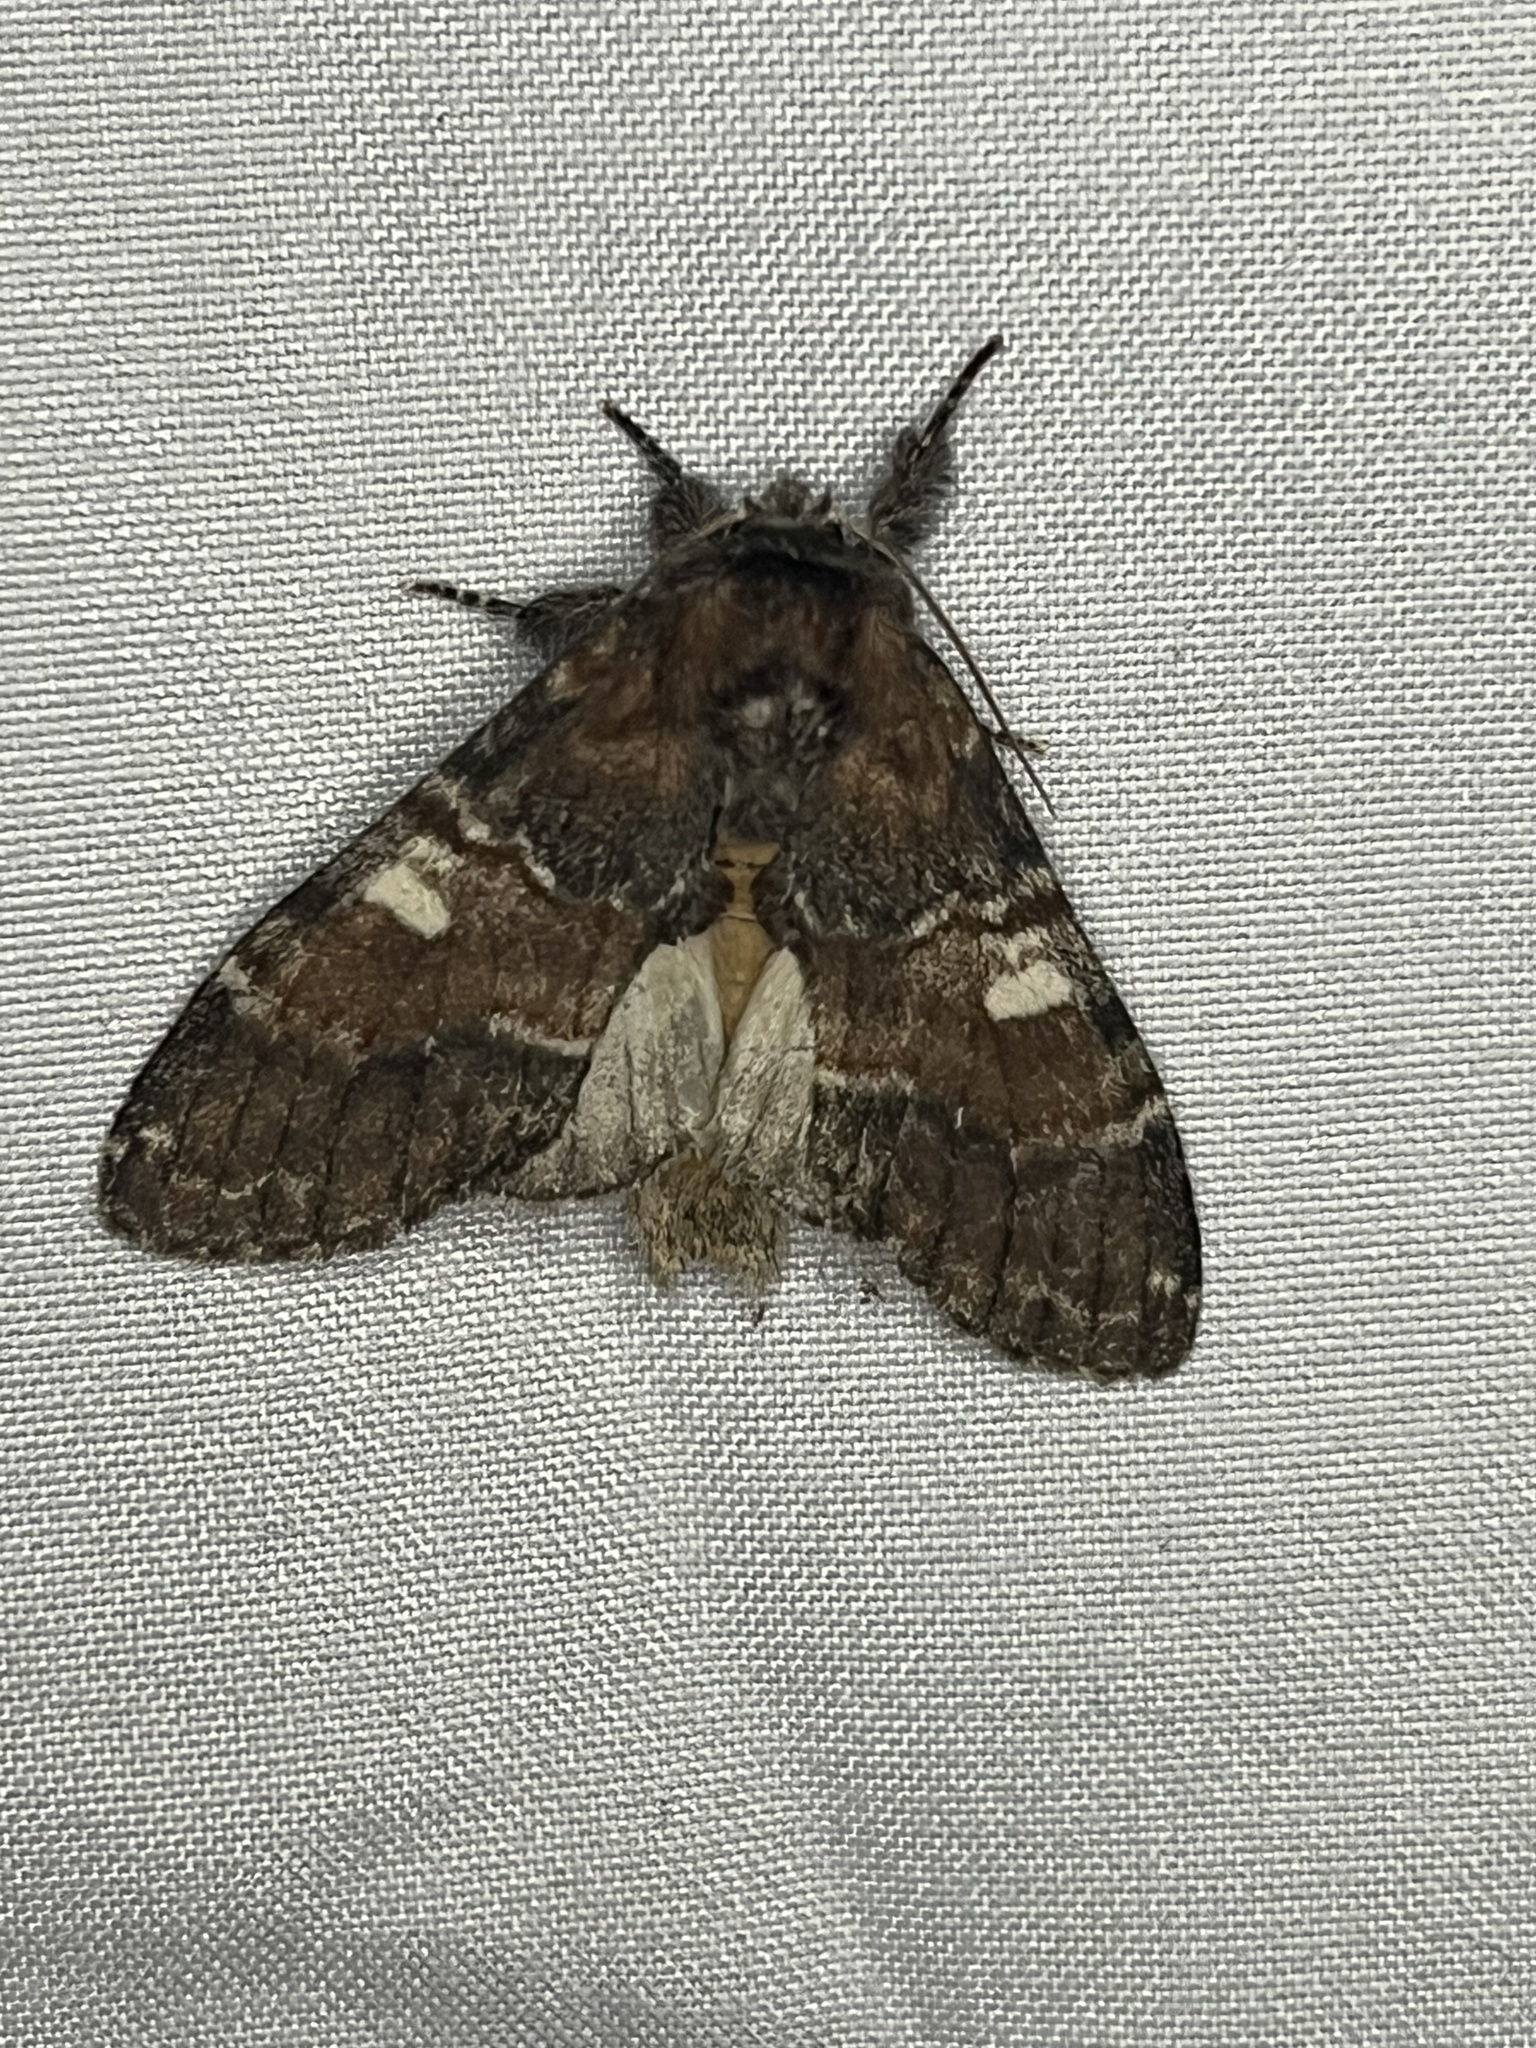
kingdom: Animalia
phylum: Arthropoda
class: Insecta
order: Lepidoptera
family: Notodontidae
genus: Peridea
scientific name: Peridea ferruginea
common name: Chocolate prominent
